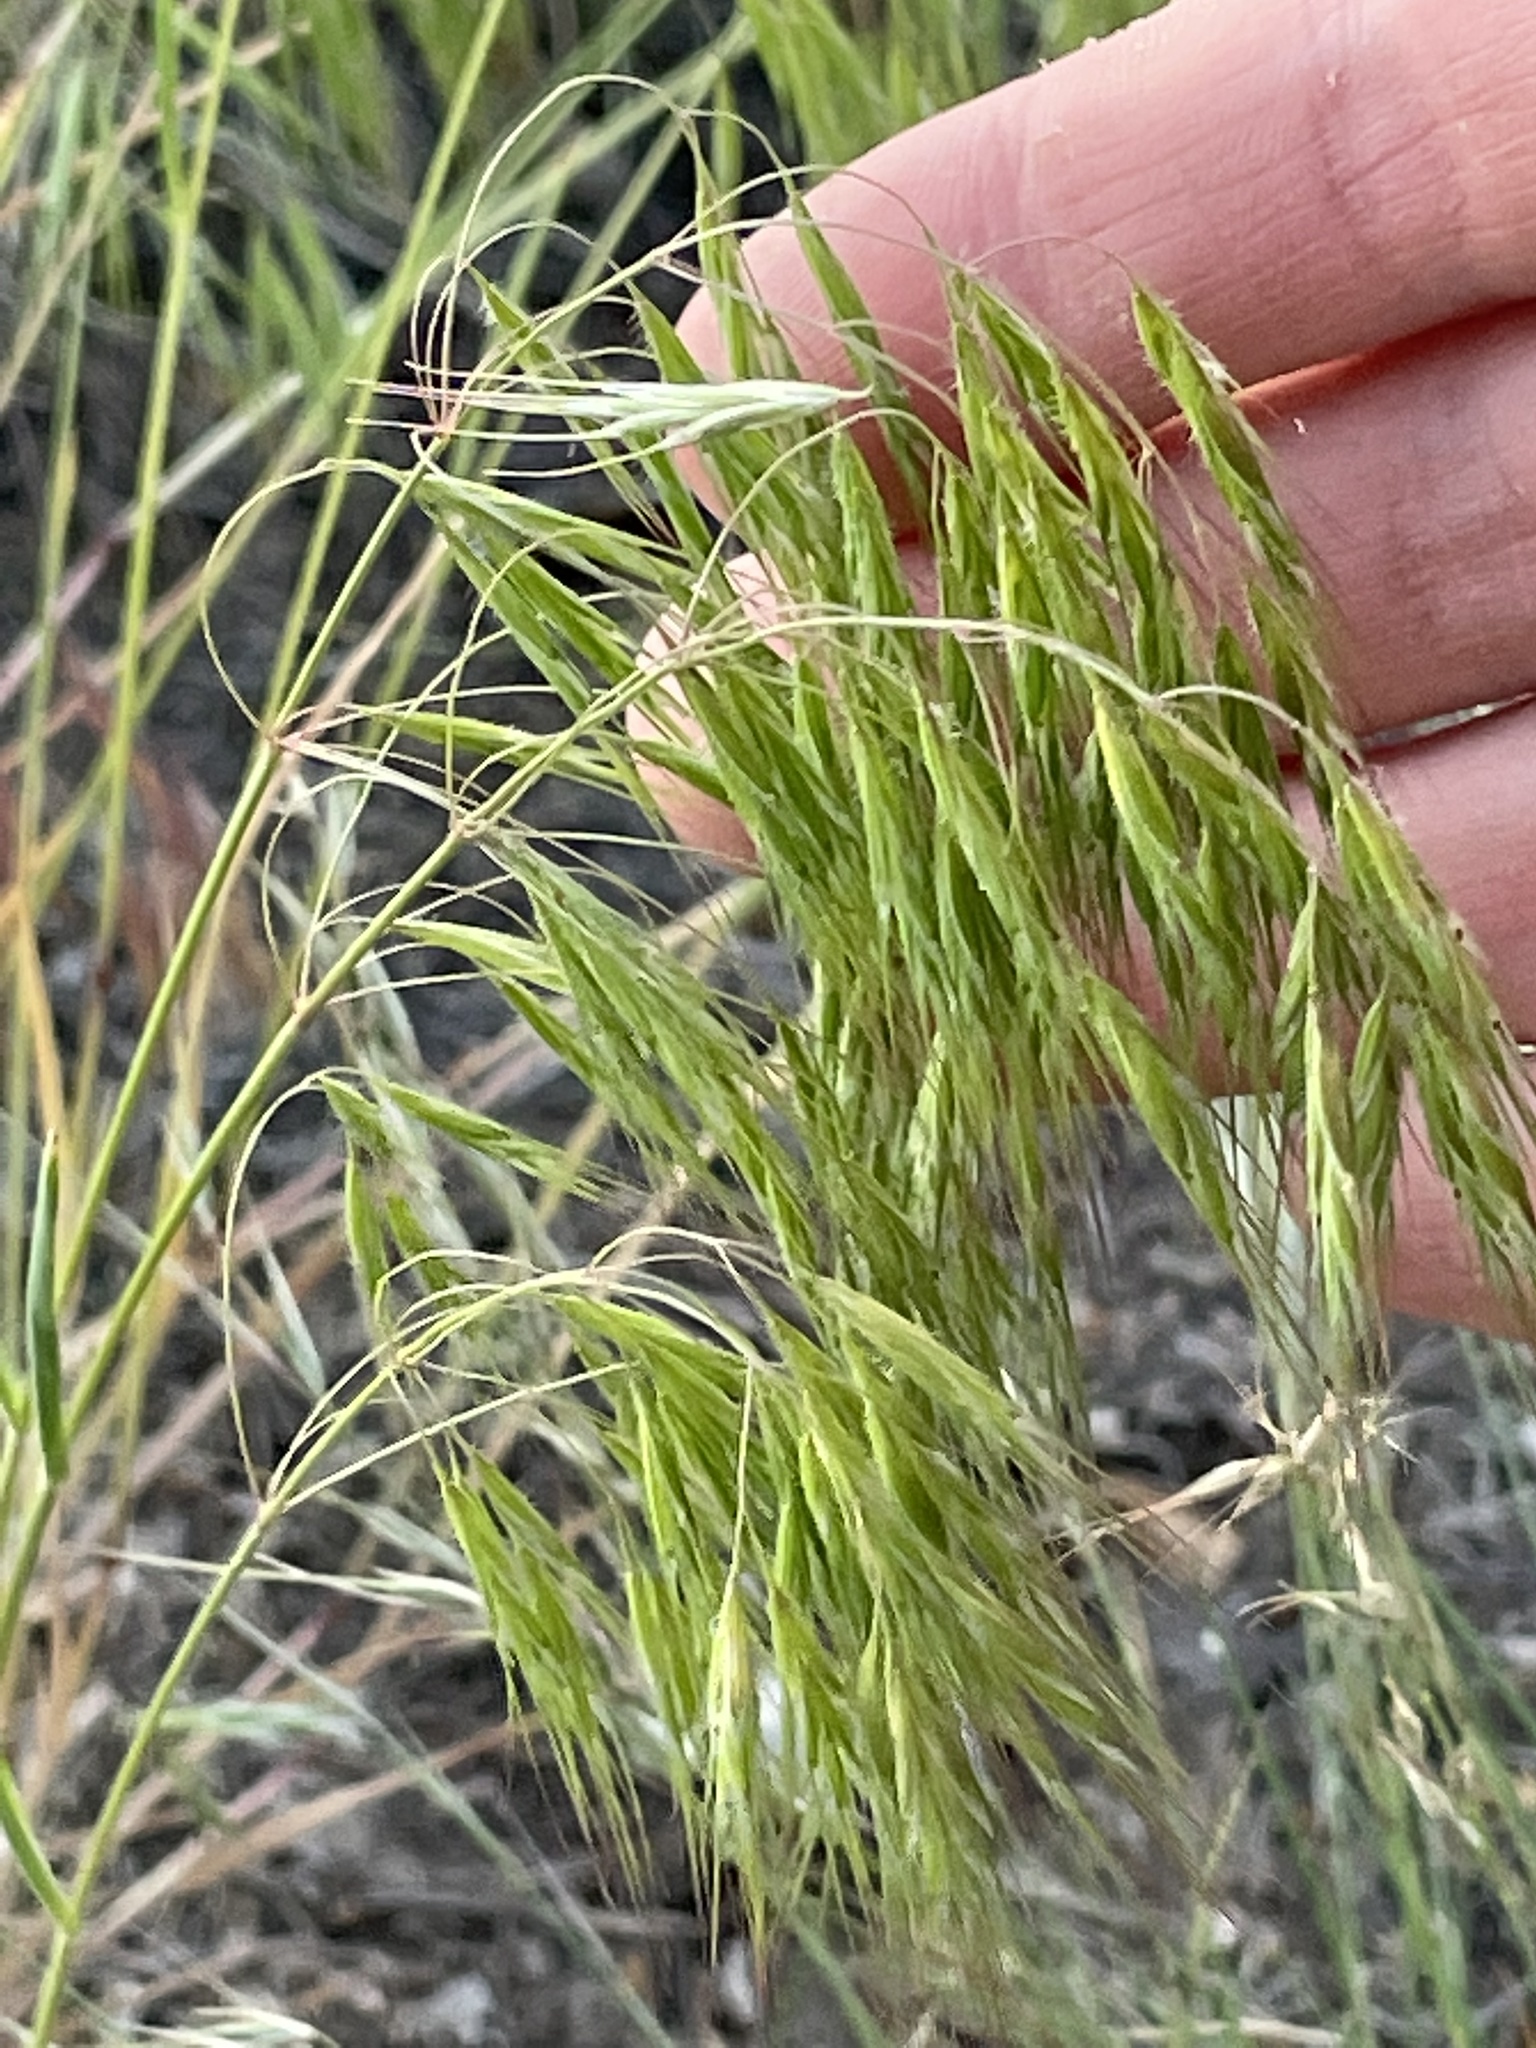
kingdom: Plantae
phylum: Tracheophyta
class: Liliopsida
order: Poales
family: Poaceae
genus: Bromus
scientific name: Bromus tectorum
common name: Cheatgrass
